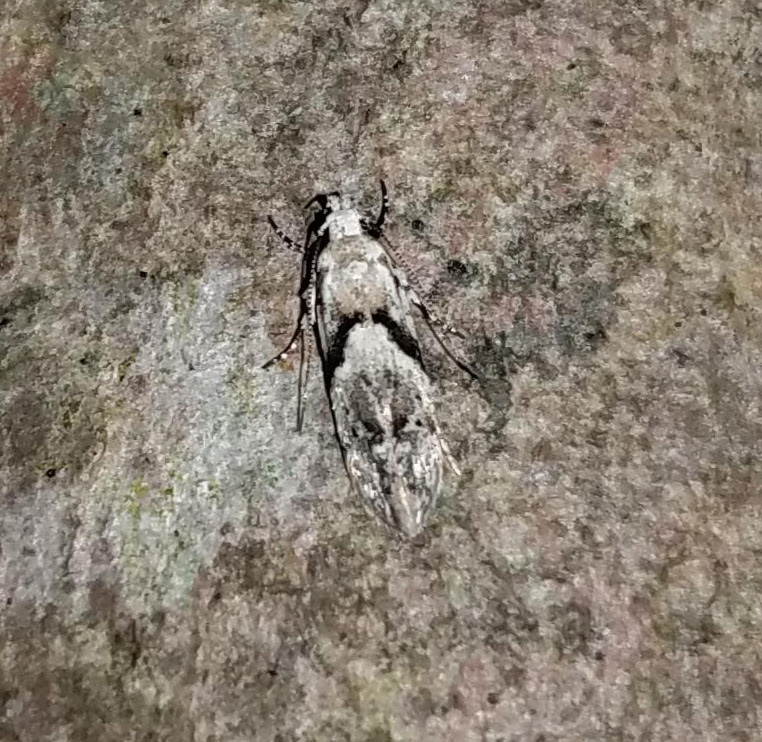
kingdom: Animalia
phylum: Arthropoda
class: Insecta
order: Lepidoptera
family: Gelechiidae
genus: Arogalea
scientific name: Arogalea cristifasciella
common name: White stripe-backed moth
